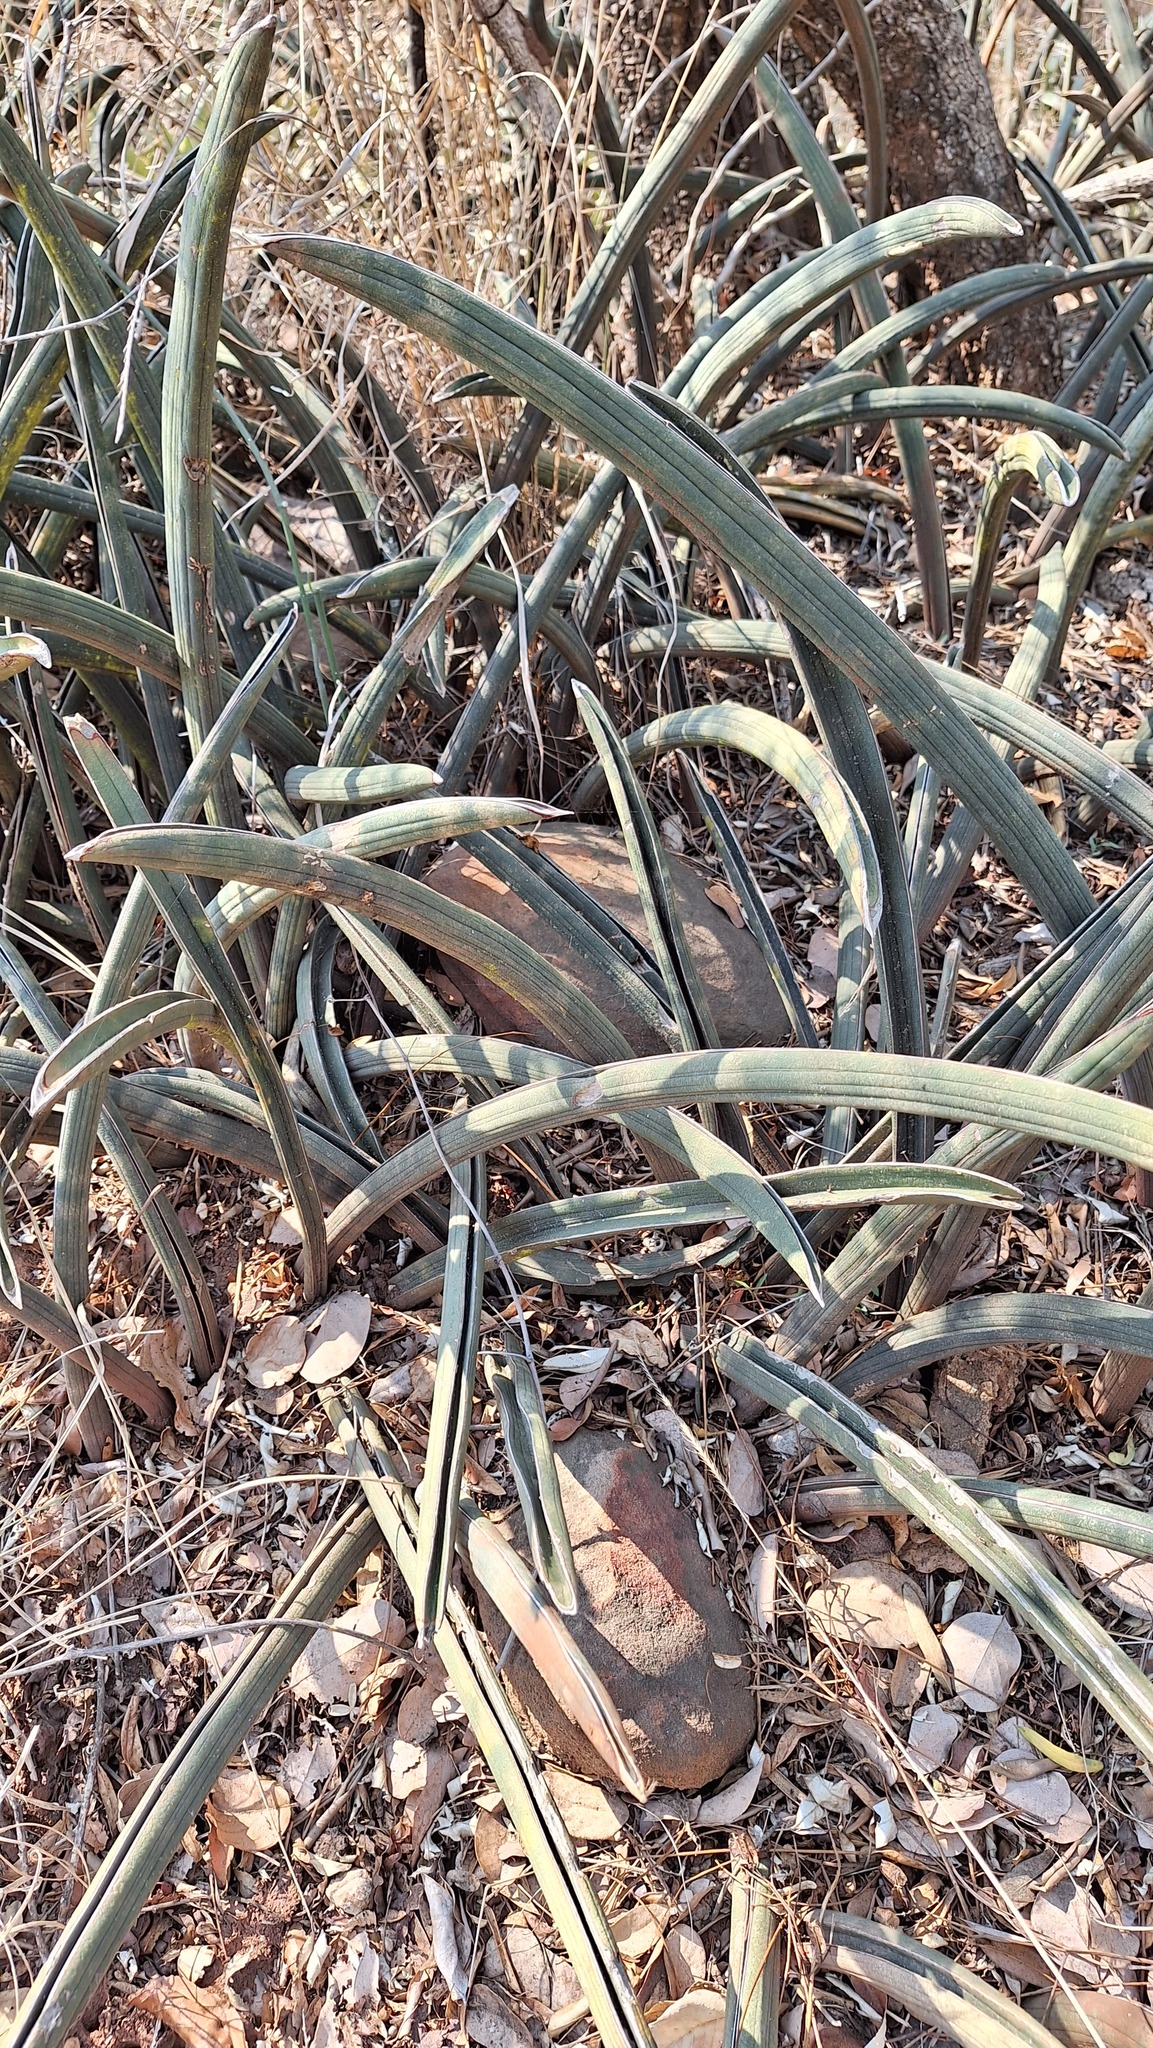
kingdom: Plantae
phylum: Tracheophyta
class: Liliopsida
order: Asparagales
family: Asparagaceae
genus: Dracaena
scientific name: Dracaena pearsonii
